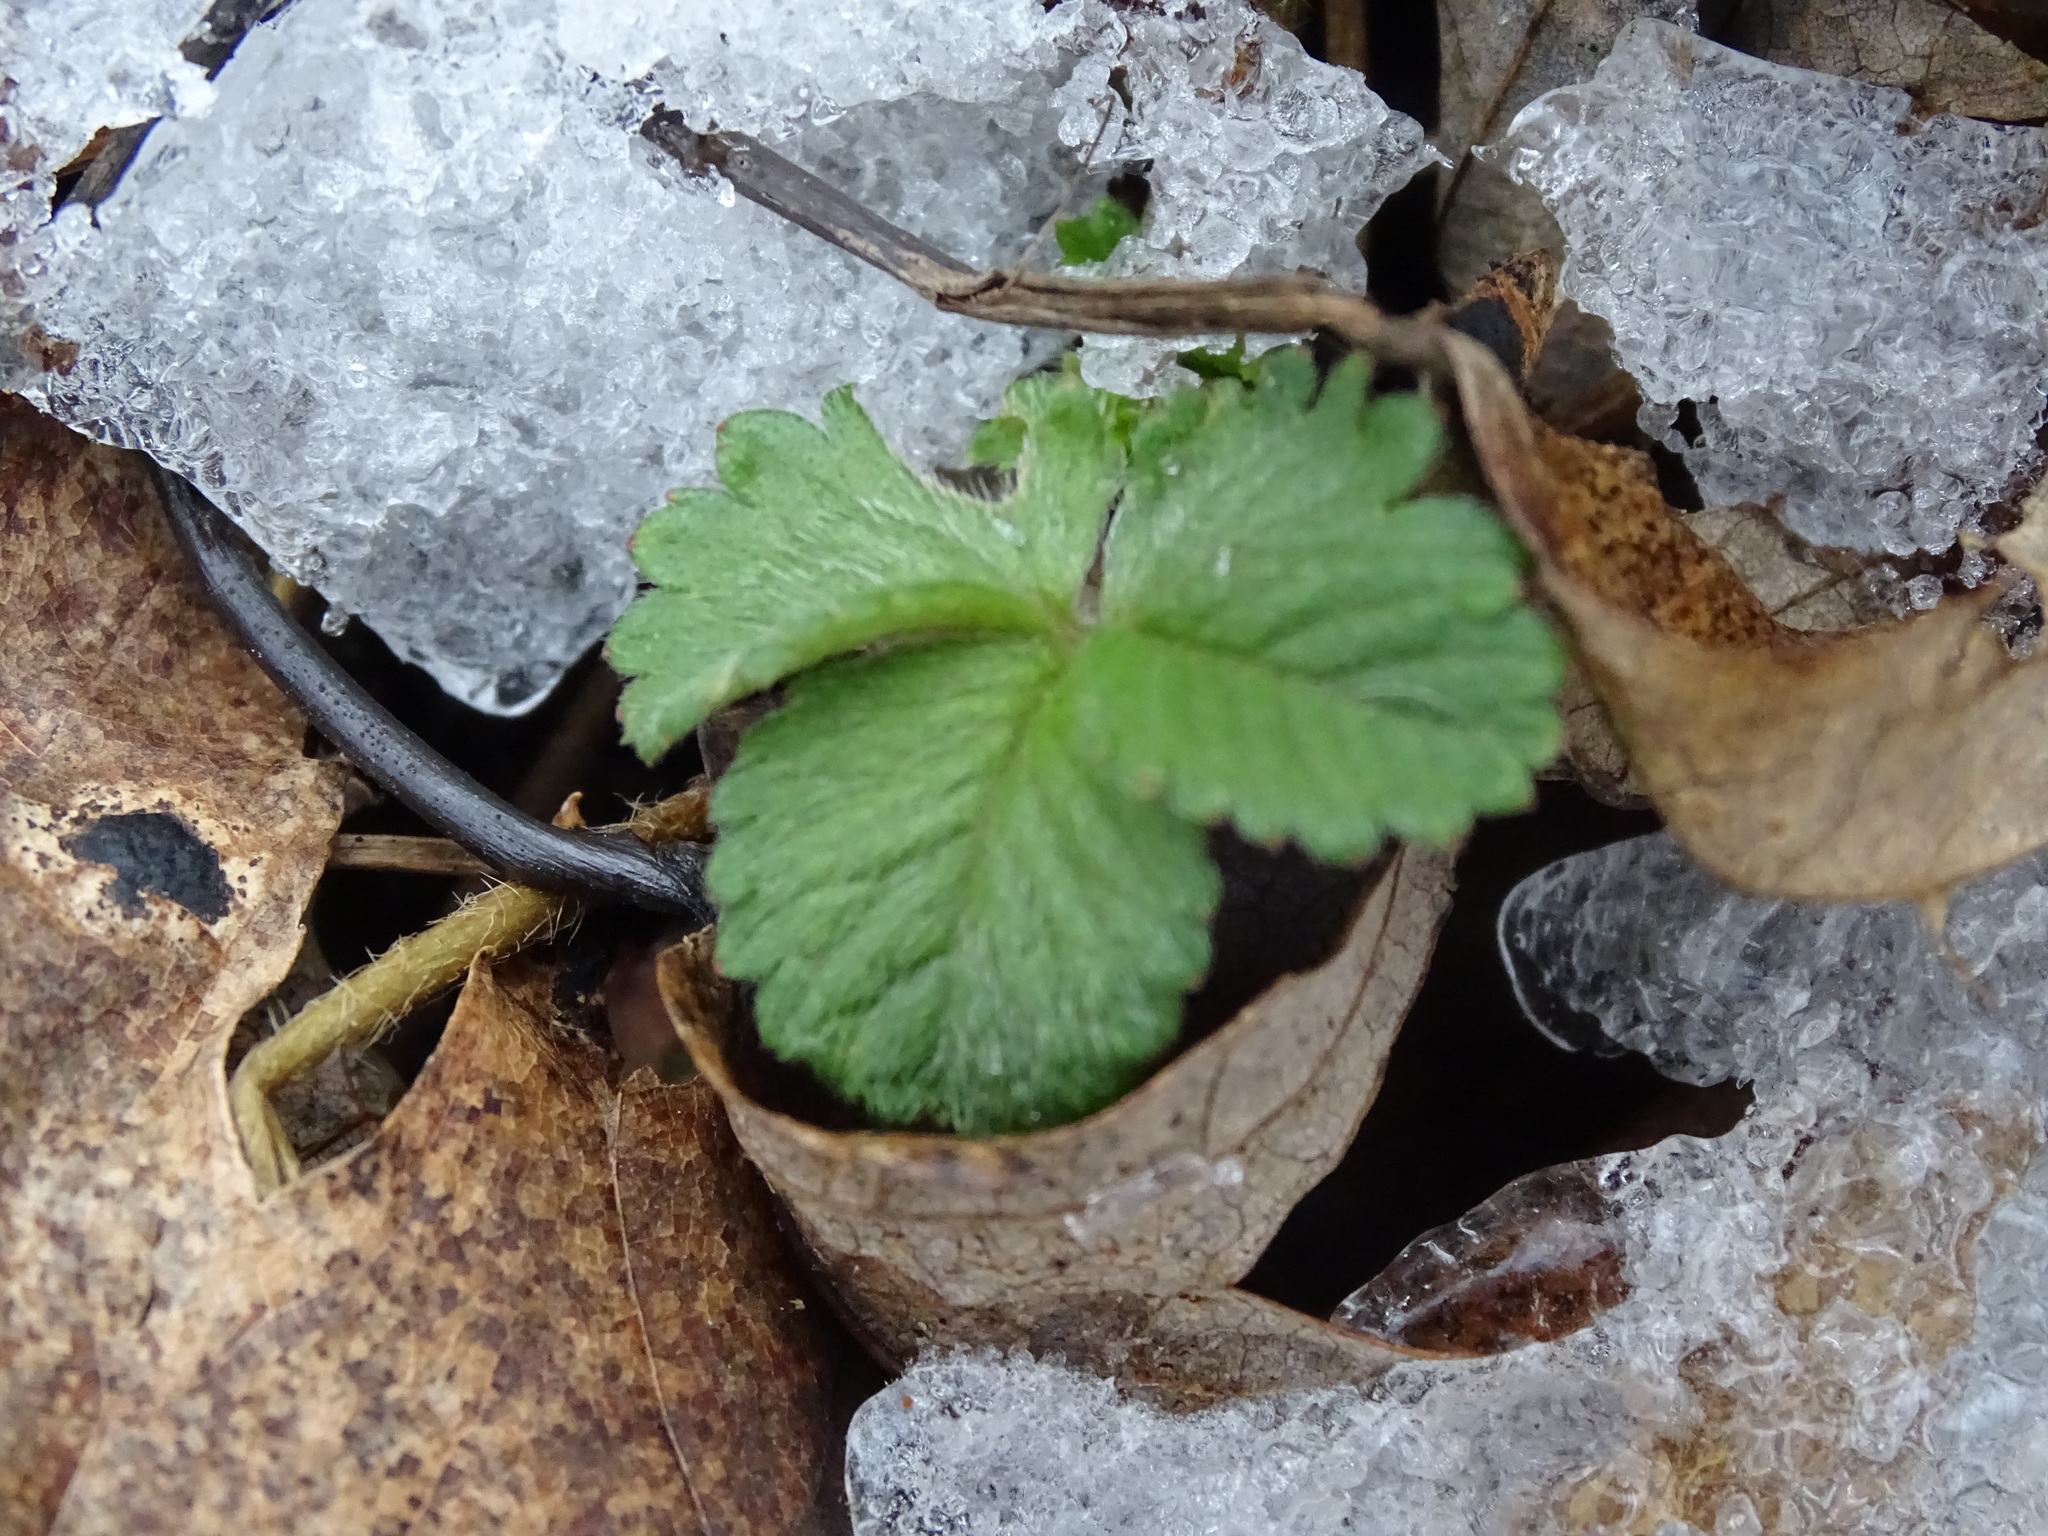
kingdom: Plantae
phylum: Tracheophyta
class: Magnoliopsida
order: Rosales
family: Rosaceae
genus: Potentilla
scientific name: Potentilla indica
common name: Yellow-flowered strawberry
